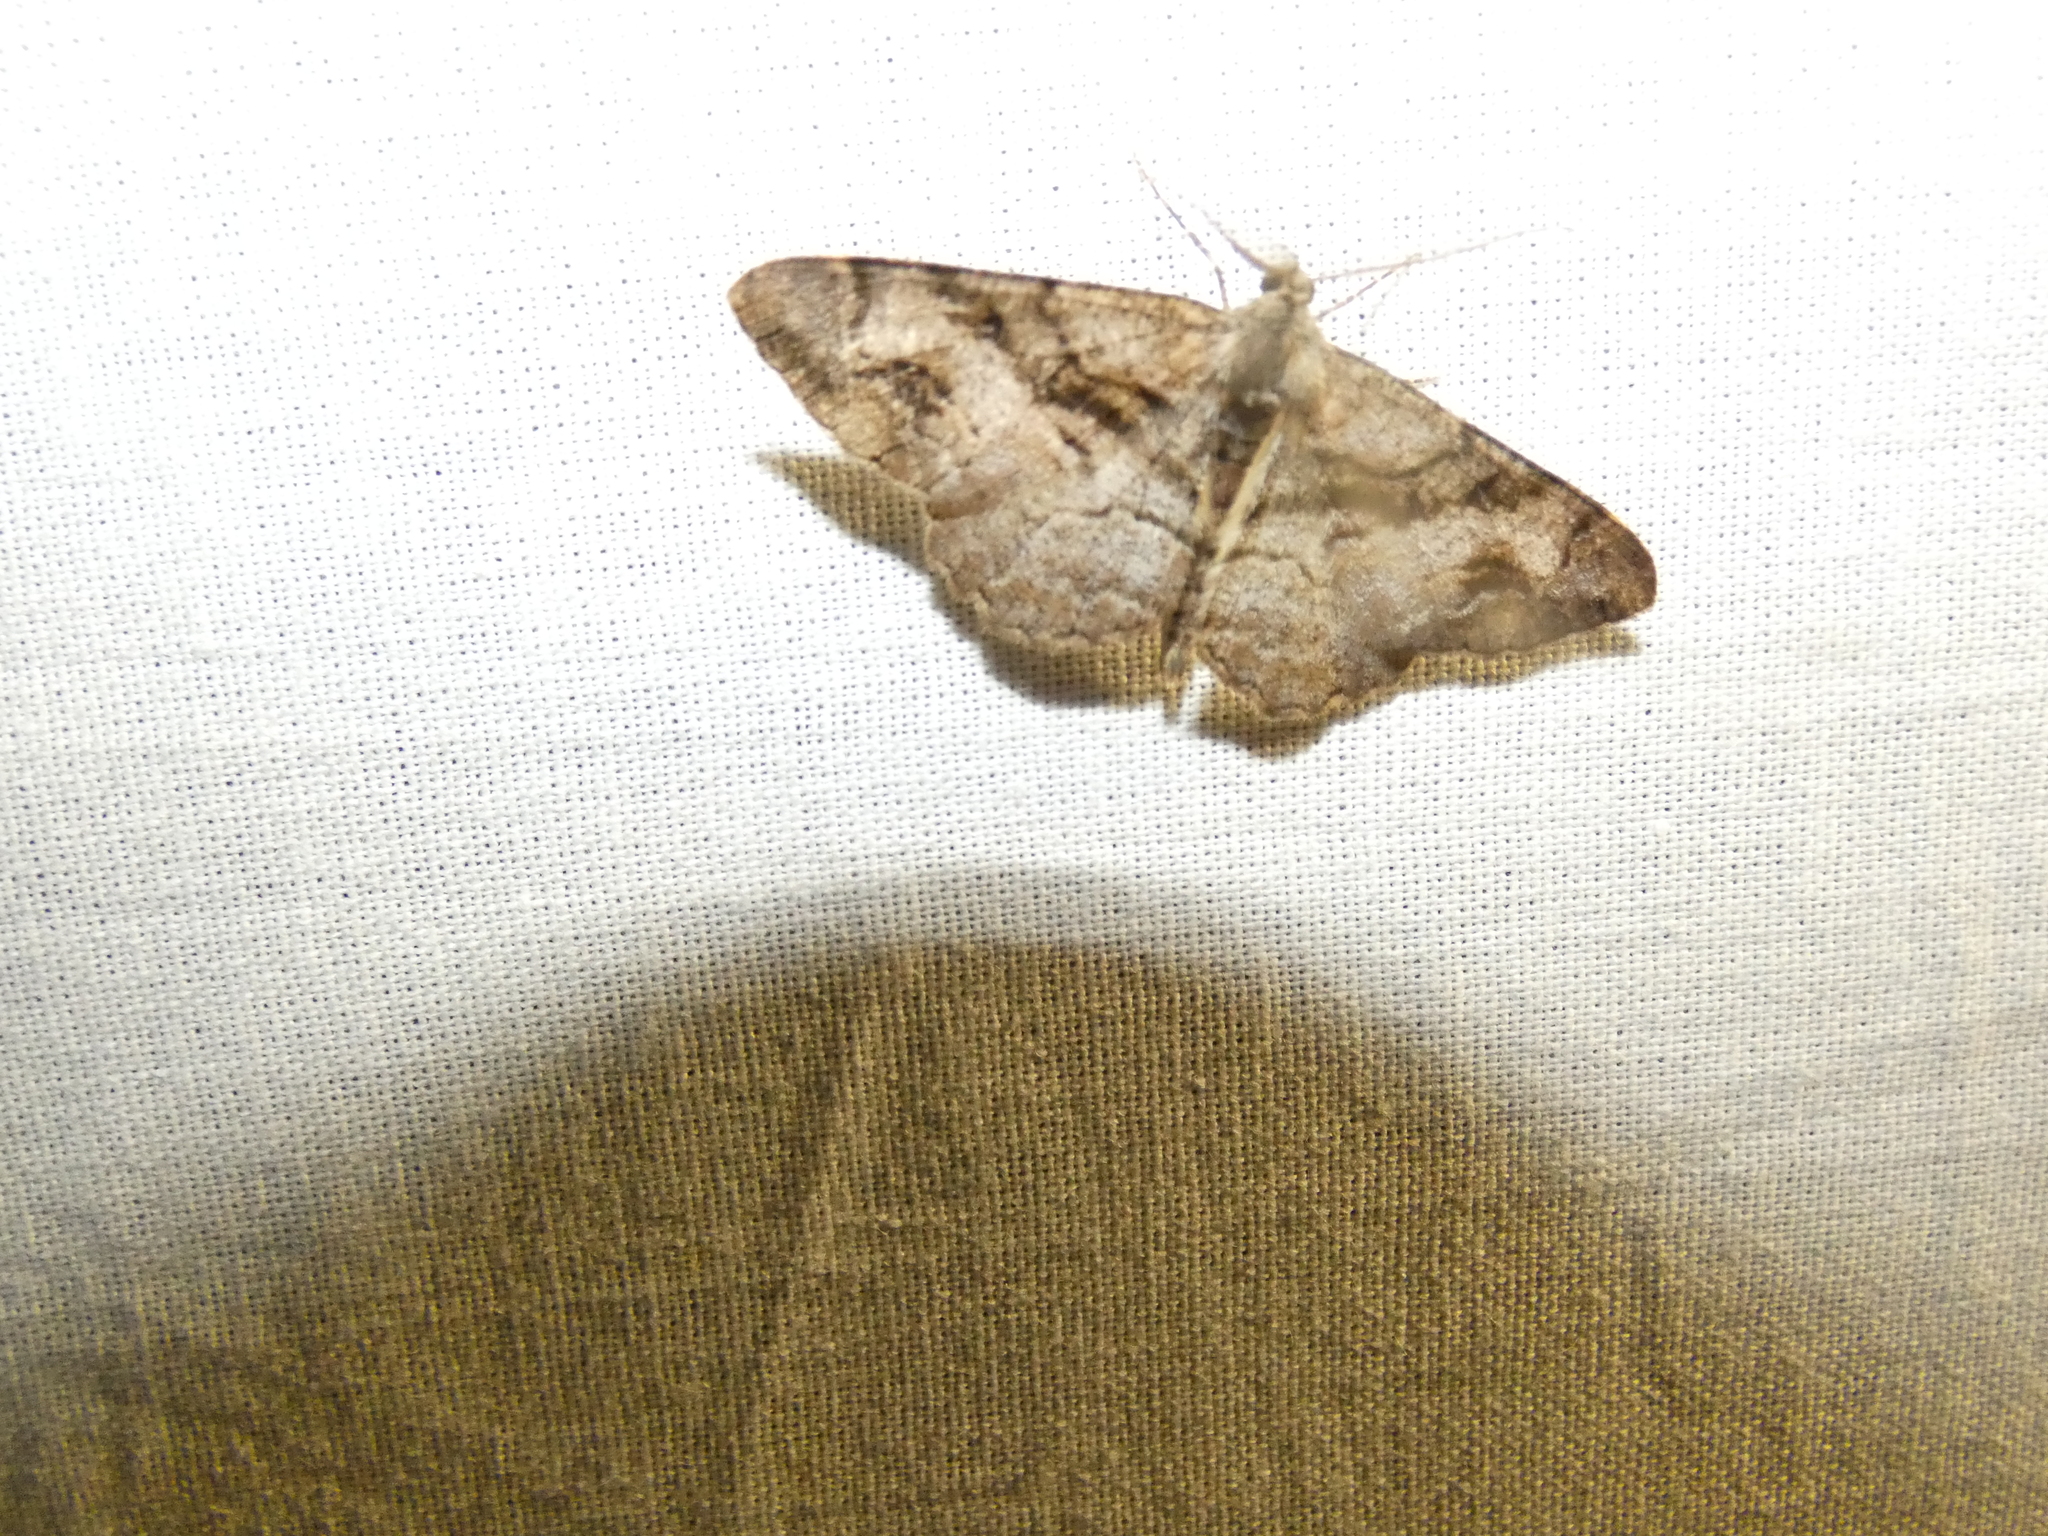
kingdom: Animalia
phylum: Arthropoda
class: Insecta
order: Lepidoptera
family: Geometridae
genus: Alcis
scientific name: Alcis deversata
